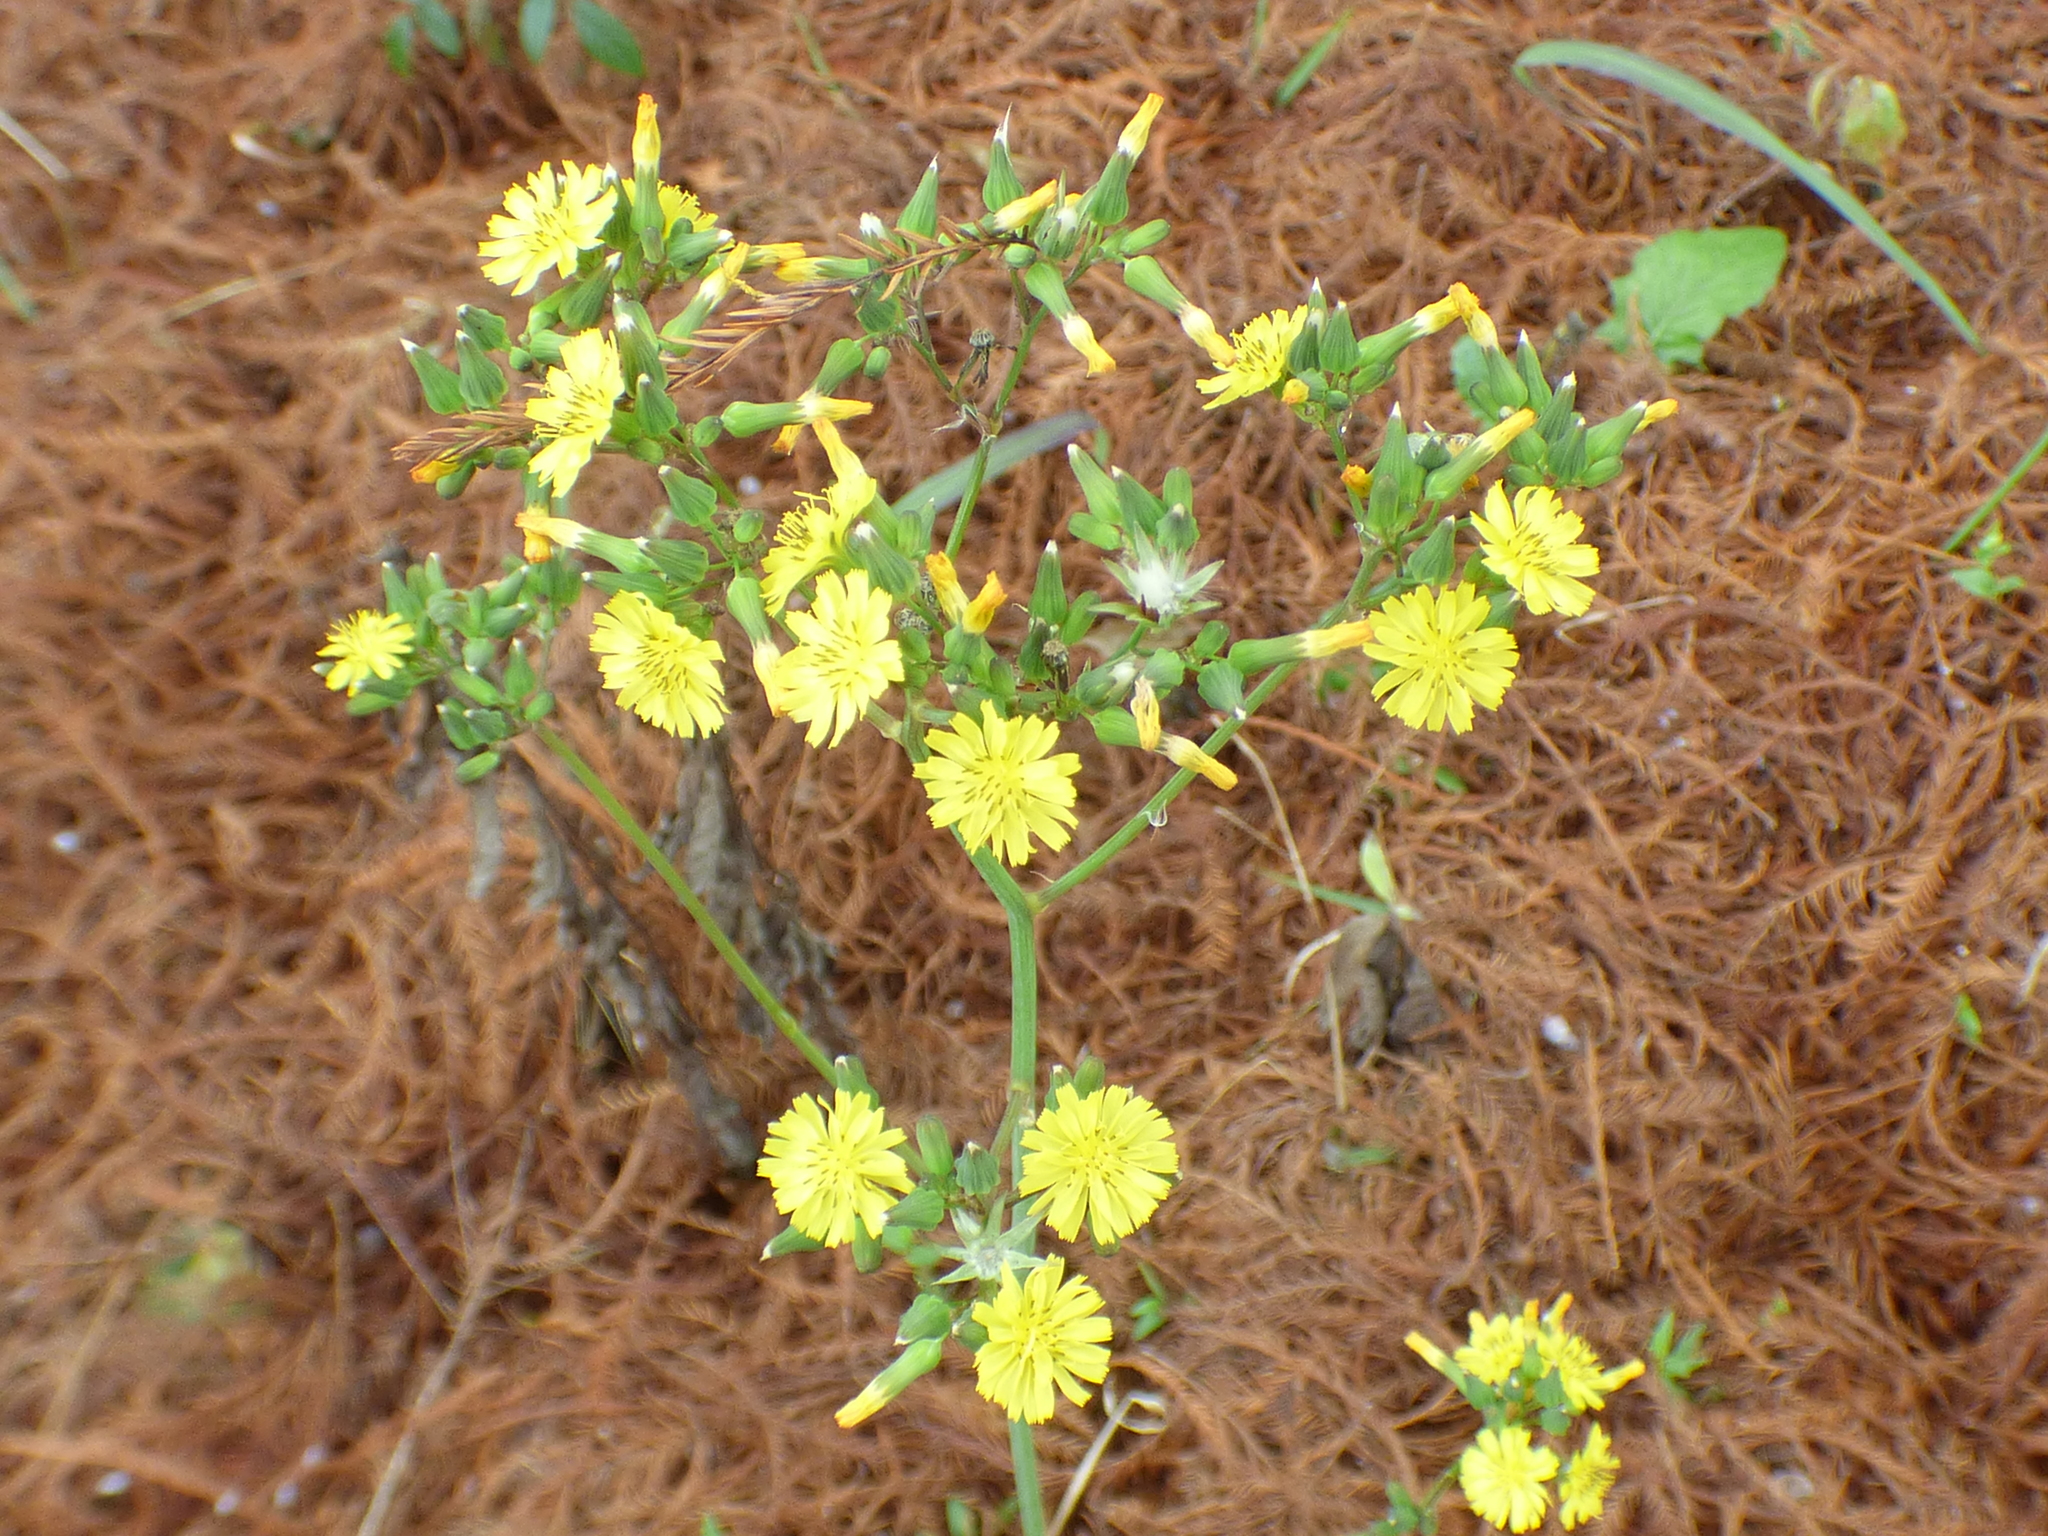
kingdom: Plantae
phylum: Tracheophyta
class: Magnoliopsida
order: Asterales
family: Asteraceae
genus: Youngia
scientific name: Youngia japonica
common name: Oriental false hawksbeard
